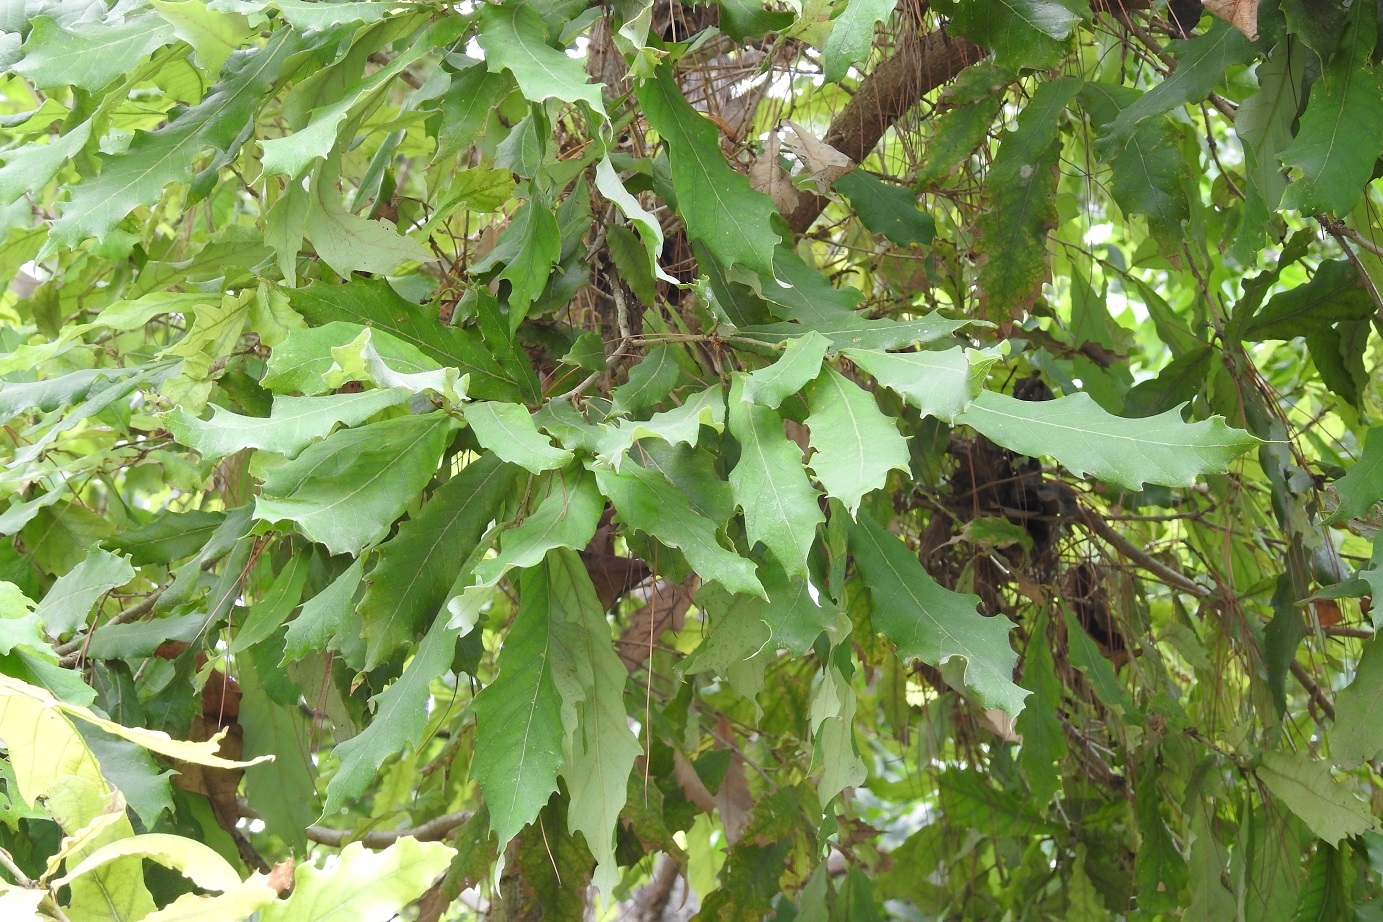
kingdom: Plantae
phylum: Tracheophyta
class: Magnoliopsida
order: Fagales
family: Fagaceae
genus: Quercus
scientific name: Quercus lancifolia
